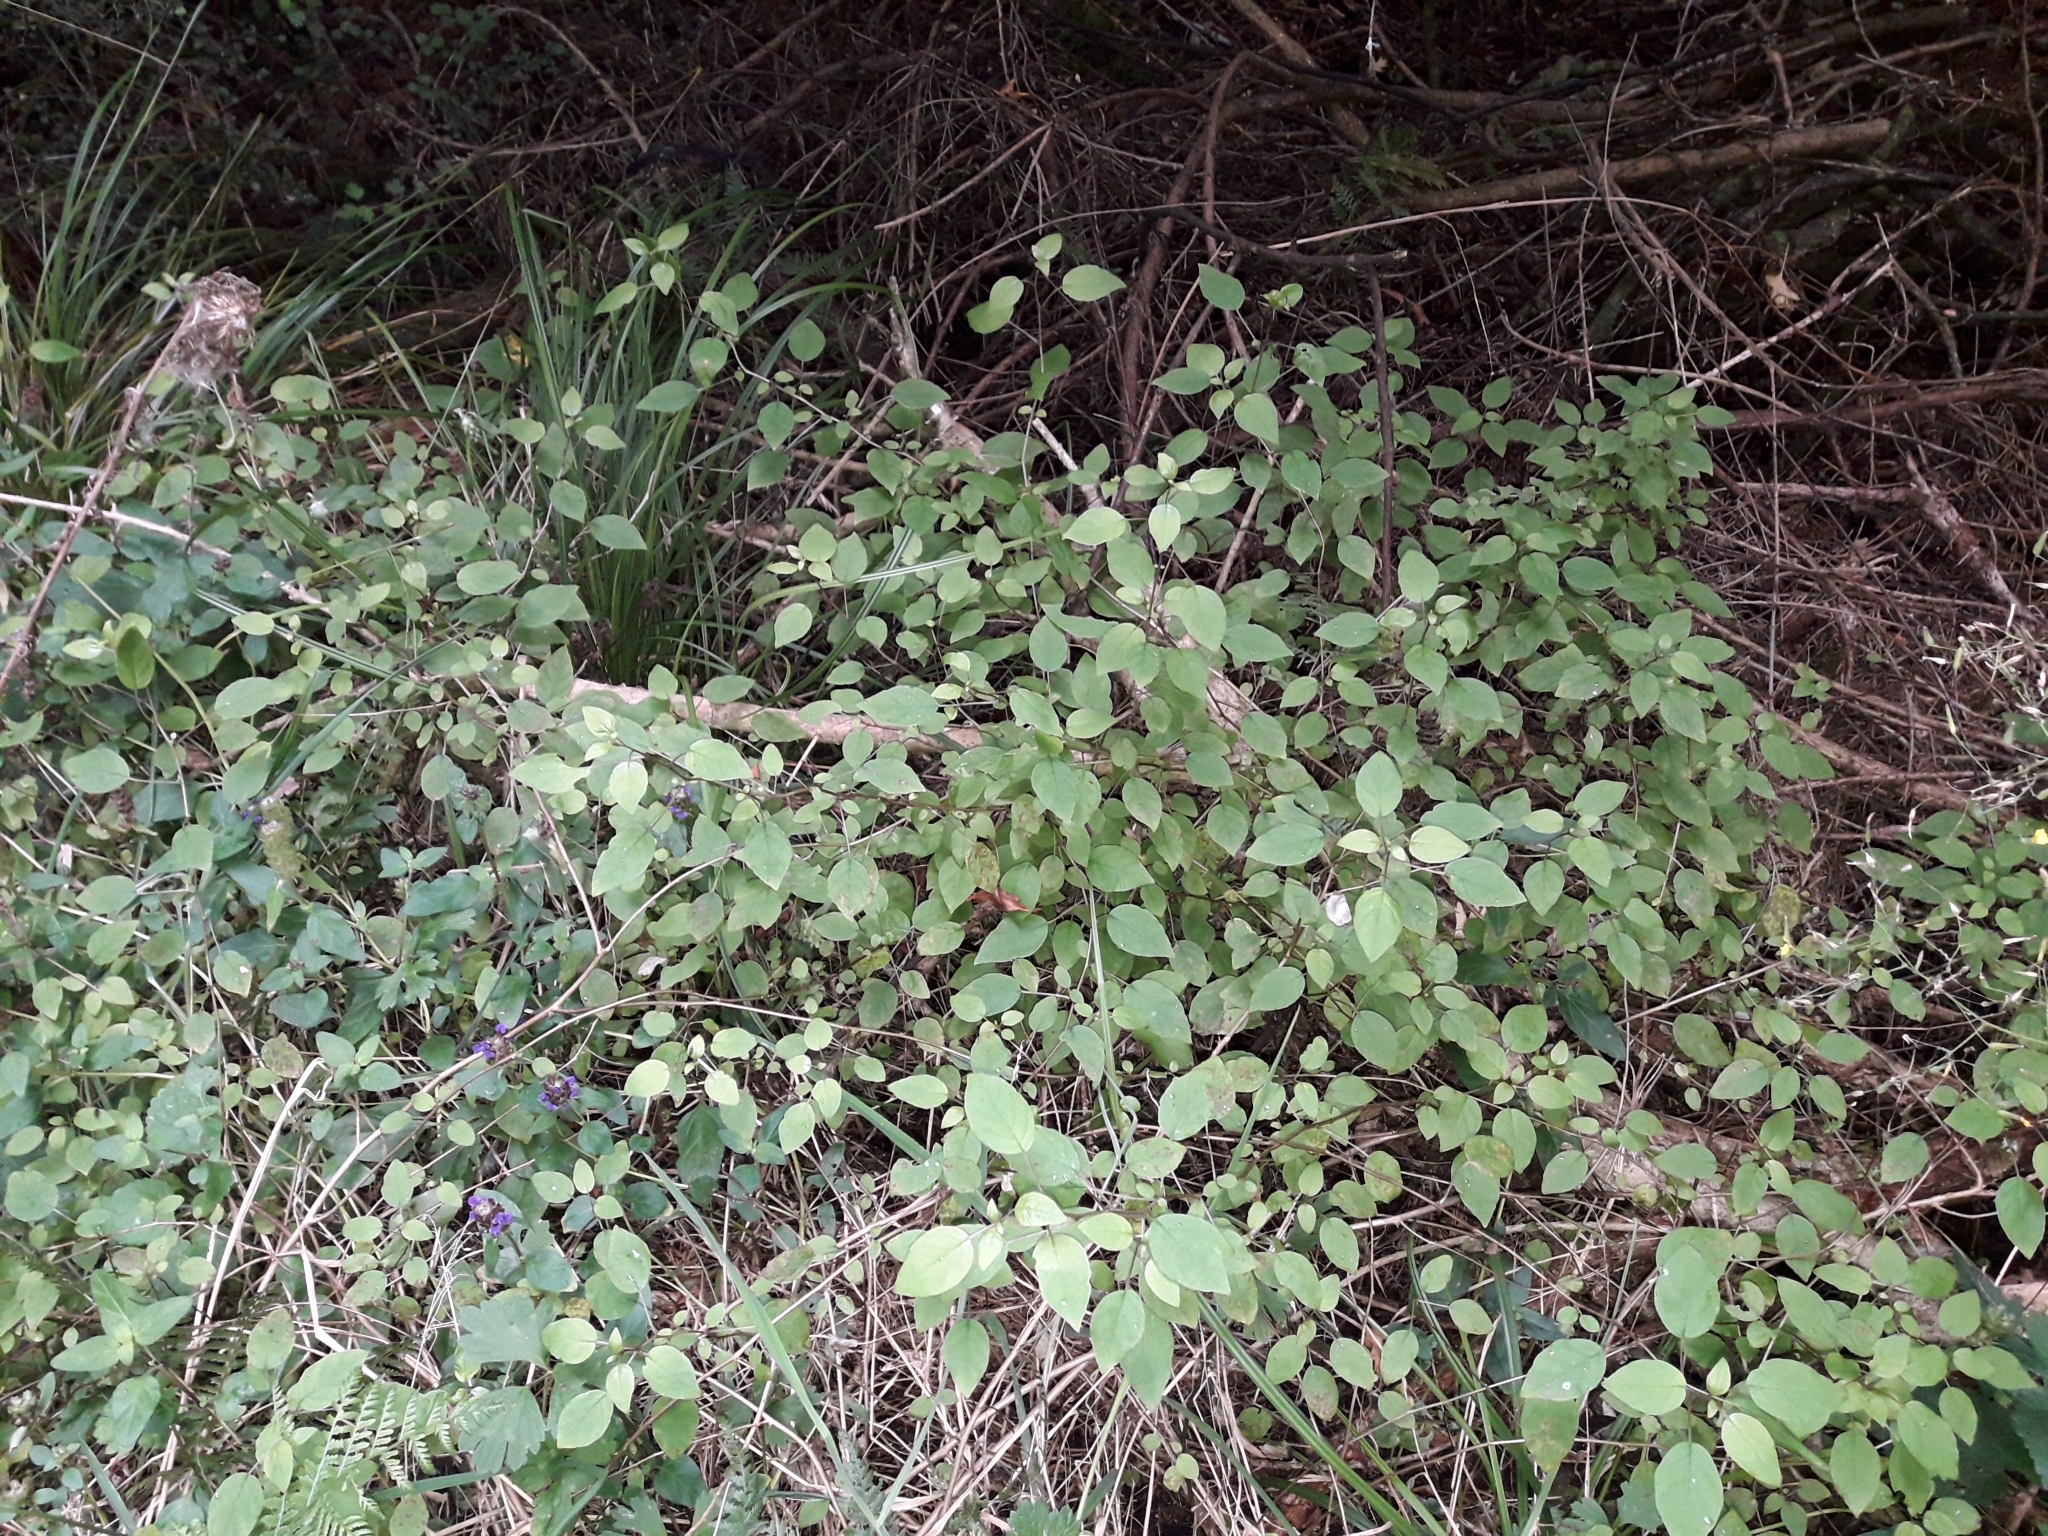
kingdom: Plantae
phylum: Tracheophyta
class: Magnoliopsida
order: Myrtales
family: Onagraceae
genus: Fuchsia
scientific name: Fuchsia perscandens
